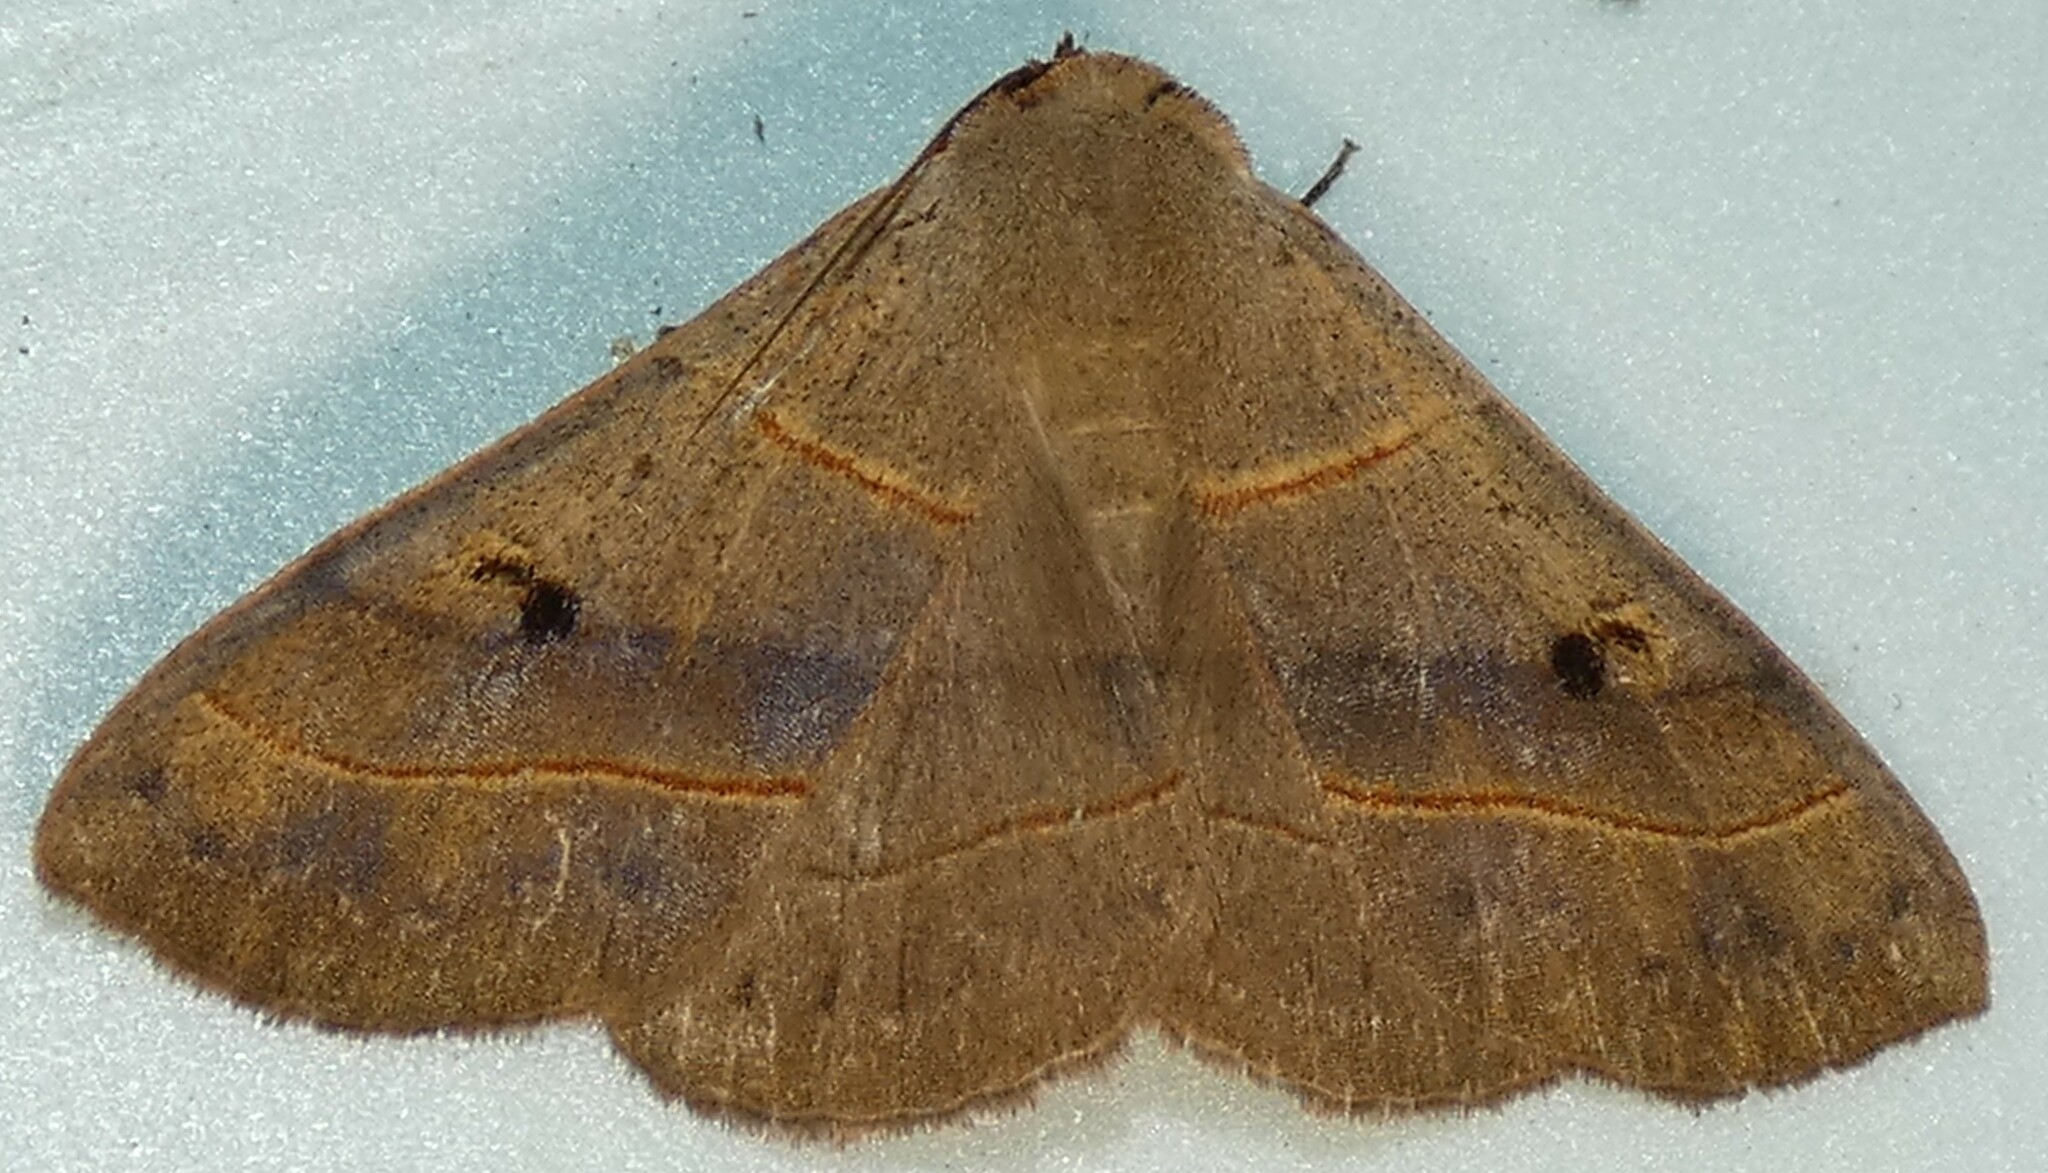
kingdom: Animalia
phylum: Arthropoda
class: Insecta
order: Lepidoptera
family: Erebidae
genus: Panopoda
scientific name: Panopoda rufimargo
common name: Red-lined panopoda moth
